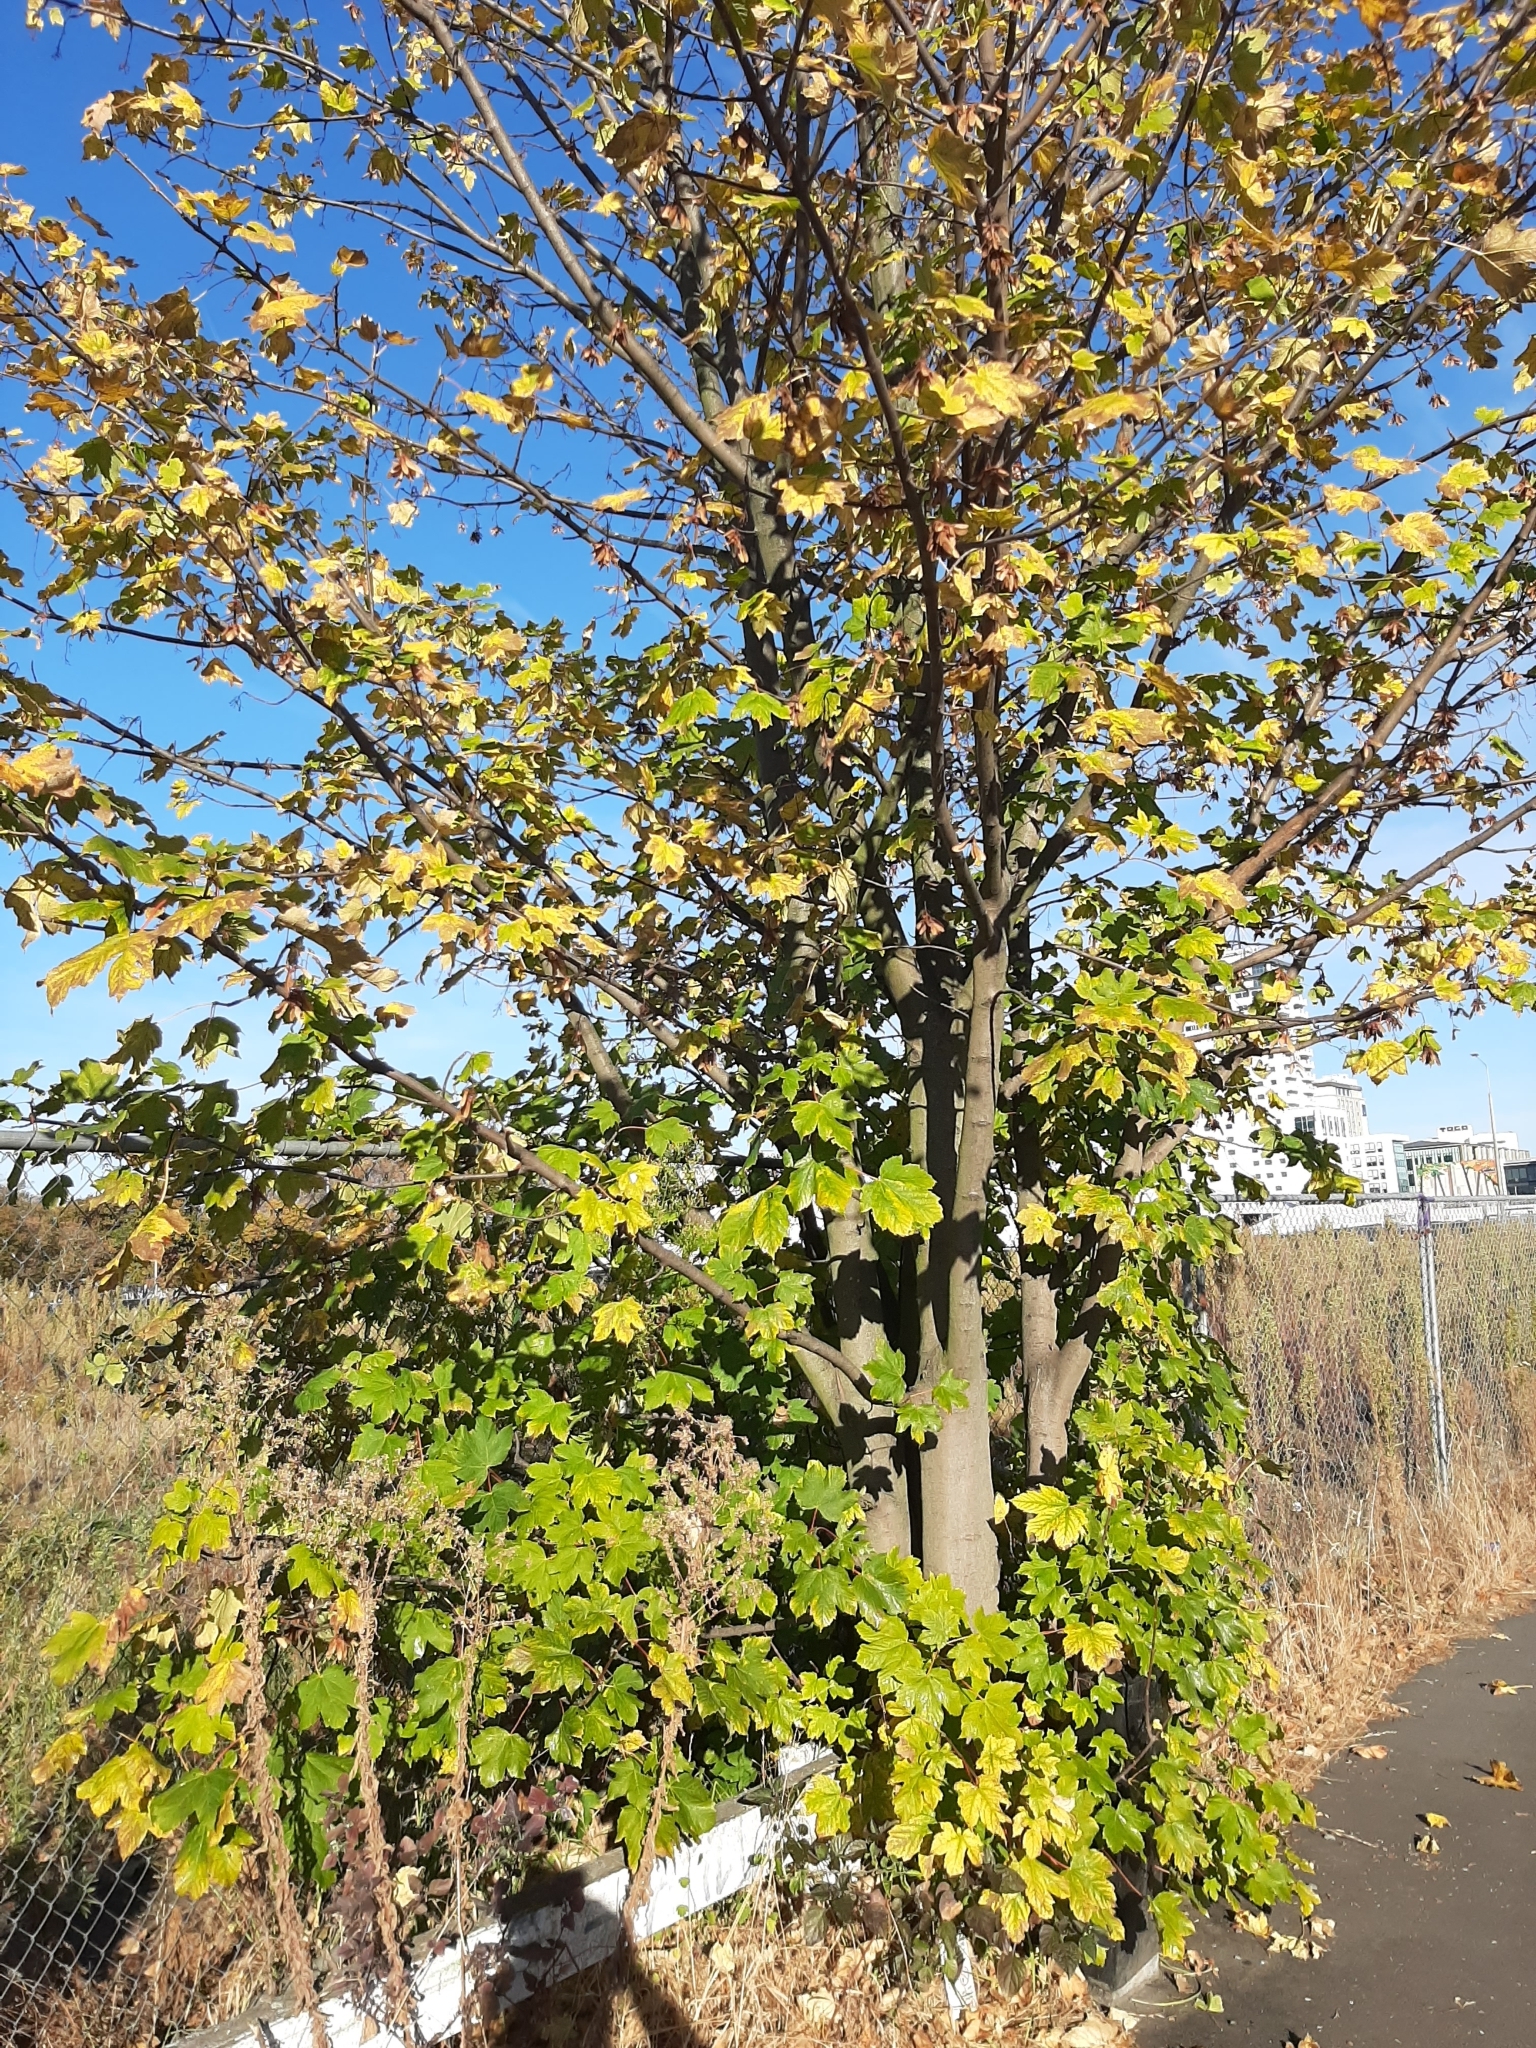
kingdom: Plantae
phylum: Tracheophyta
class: Magnoliopsida
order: Sapindales
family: Sapindaceae
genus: Acer
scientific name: Acer pseudoplatanus
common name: Sycamore
